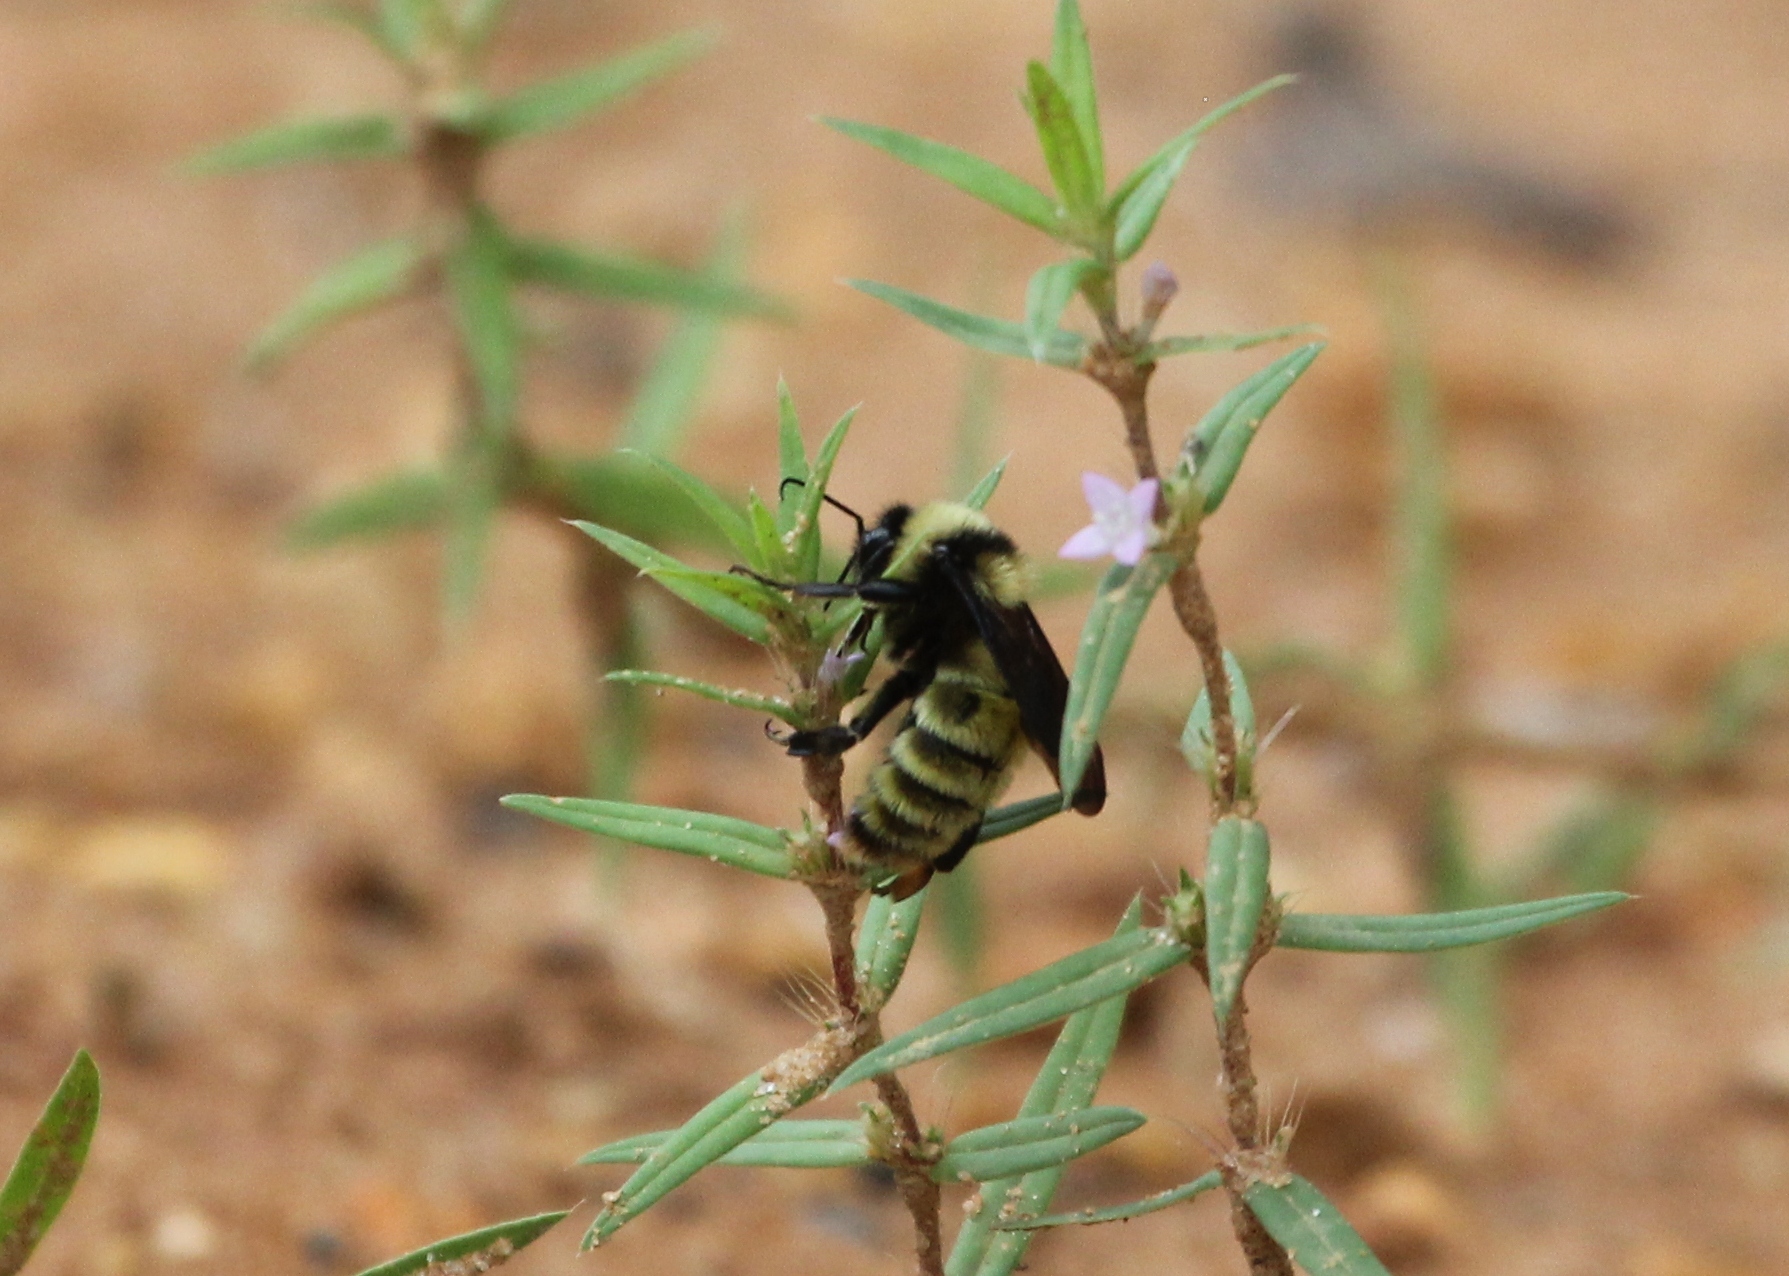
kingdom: Animalia
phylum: Arthropoda
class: Insecta
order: Hymenoptera
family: Apidae
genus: Bombus
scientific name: Bombus pensylvanicus
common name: Bumble bee
